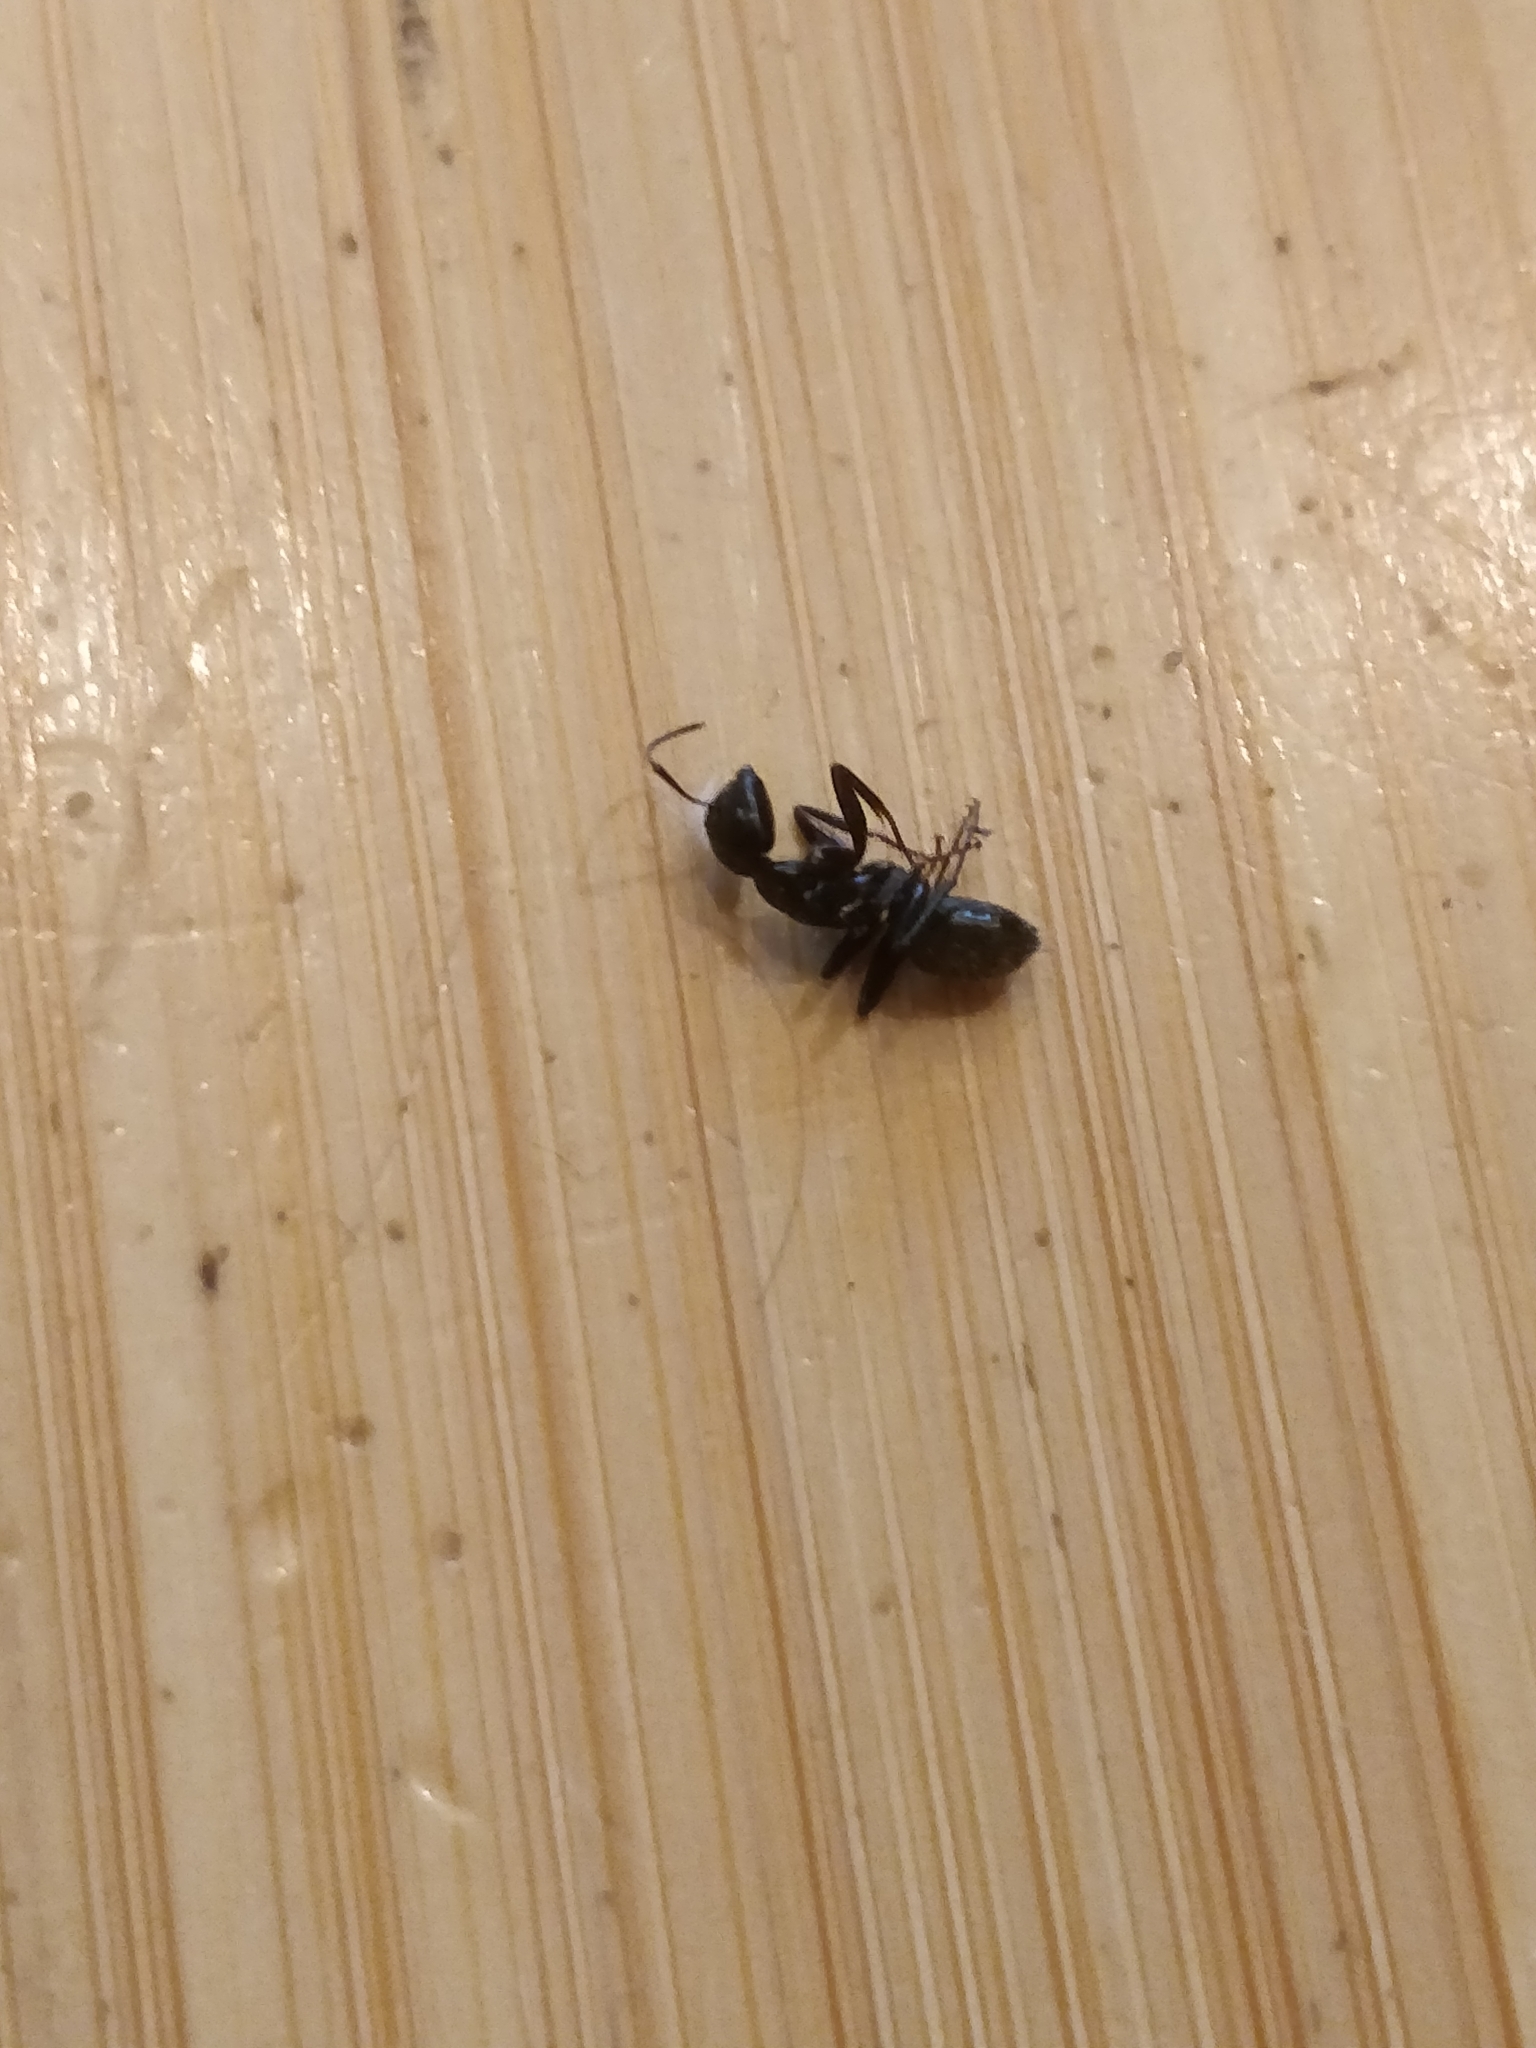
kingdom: Animalia
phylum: Arthropoda
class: Insecta
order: Hymenoptera
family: Formicidae
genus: Camponotus
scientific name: Camponotus pennsylvanicus
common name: Black carpenter ant
